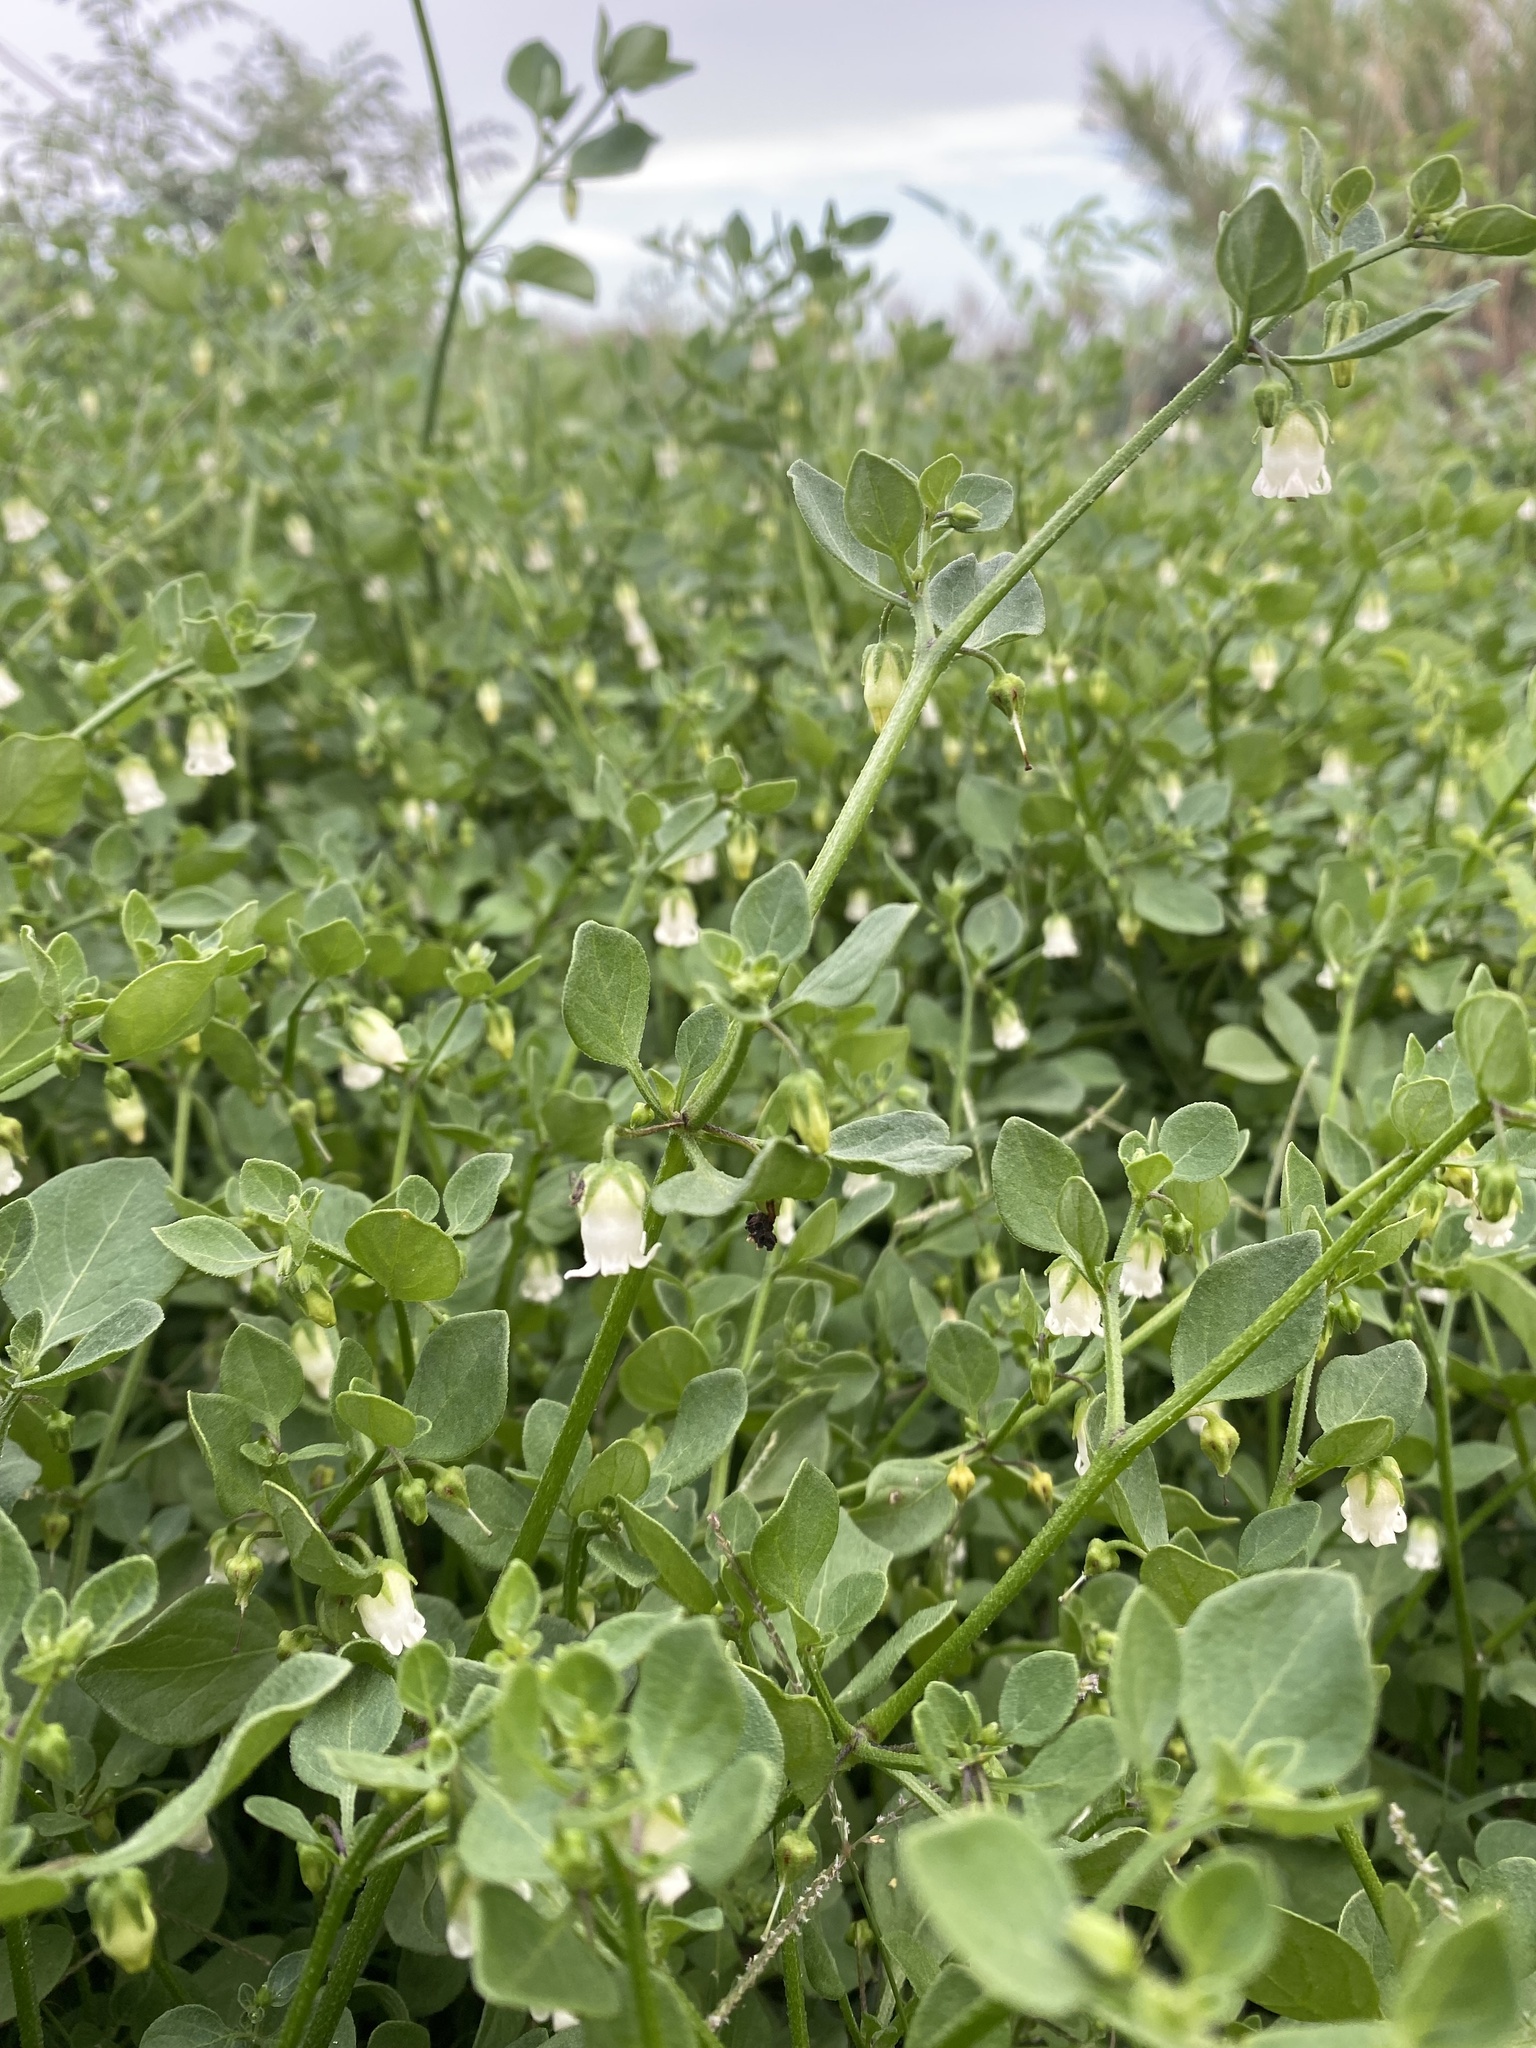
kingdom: Plantae
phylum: Tracheophyta
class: Magnoliopsida
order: Solanales
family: Solanaceae
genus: Salpichroa
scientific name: Salpichroa origanifolia
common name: Lily-of-the-valley-vine
